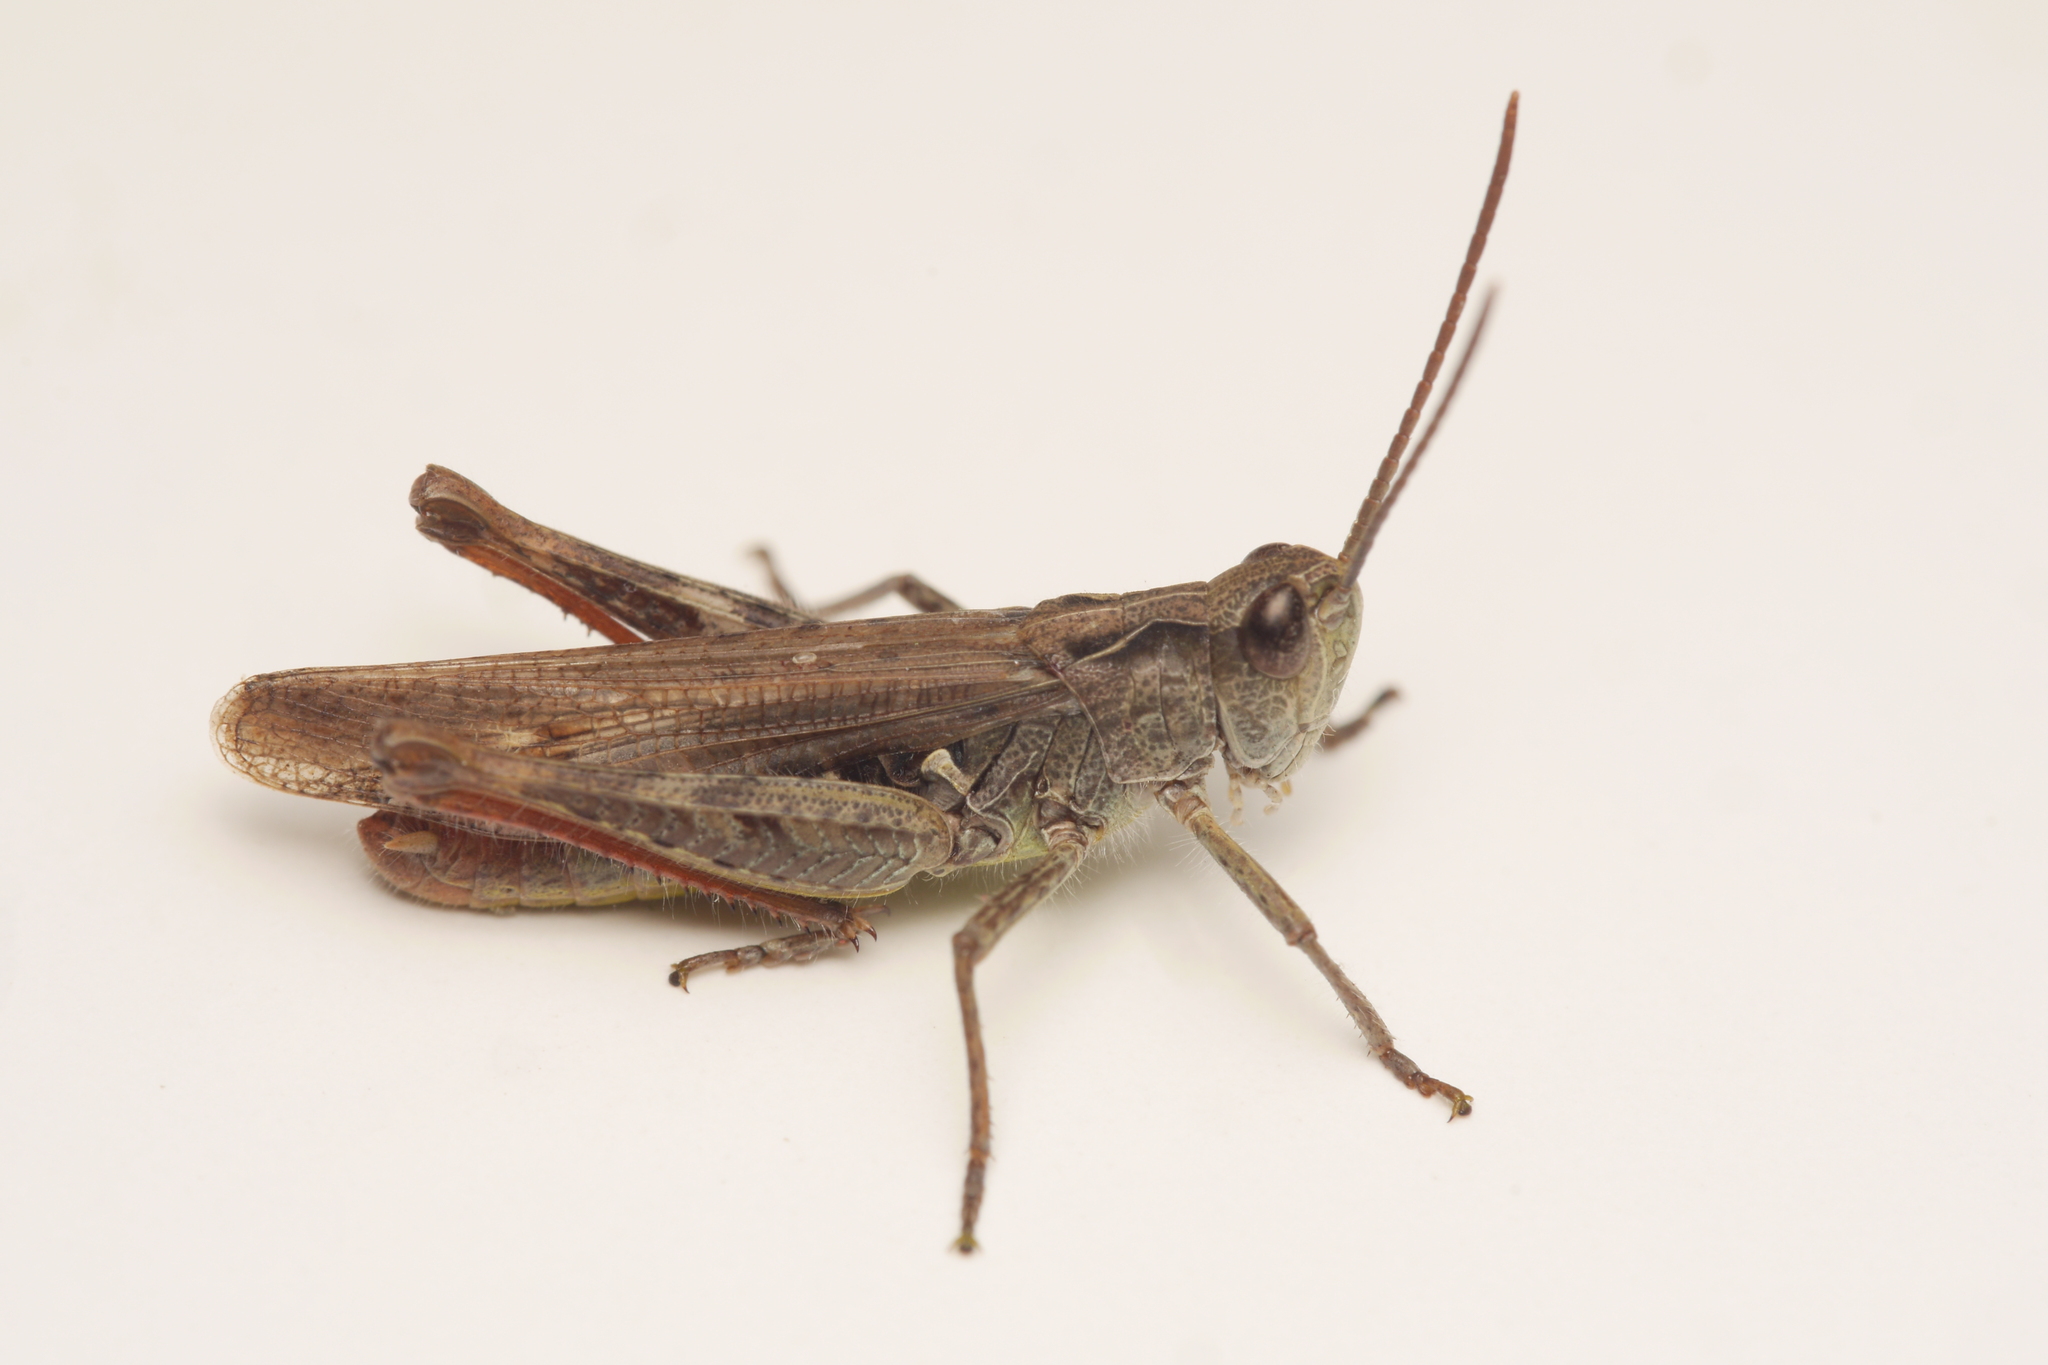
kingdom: Animalia
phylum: Arthropoda
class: Insecta
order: Orthoptera
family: Acrididae
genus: Chorthippus
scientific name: Chorthippus biguttulus
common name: Bow-winged grasshopper
